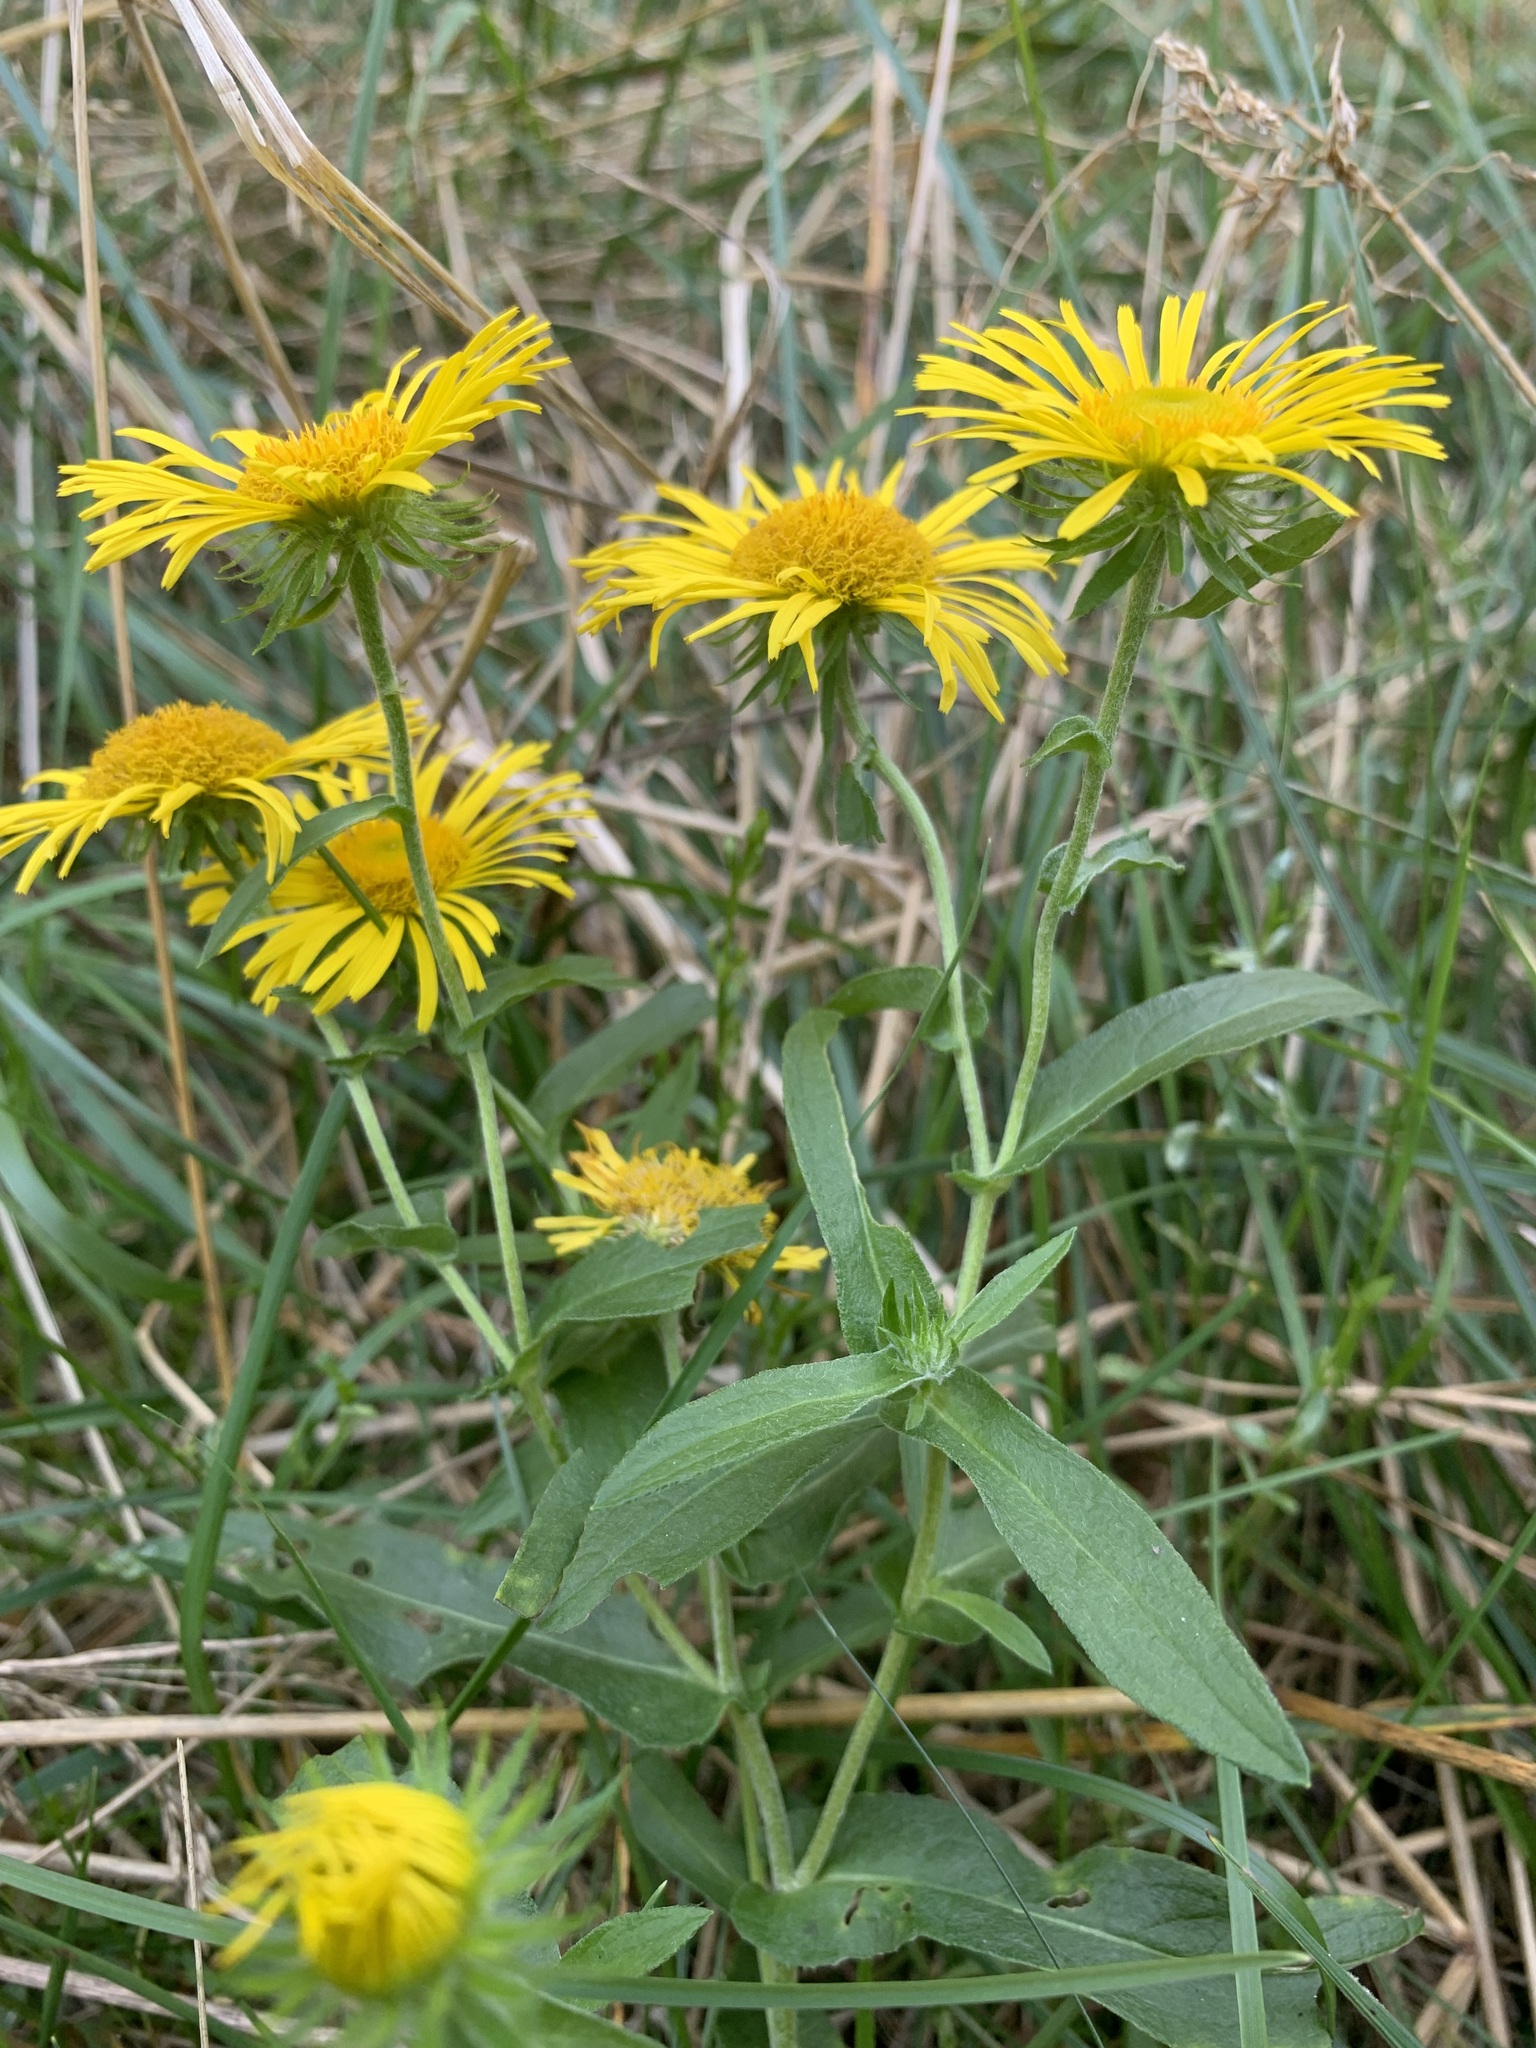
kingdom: Plantae
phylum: Tracheophyta
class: Magnoliopsida
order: Asterales
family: Asteraceae
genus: Pentanema
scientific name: Pentanema britannicum
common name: British elecampane
